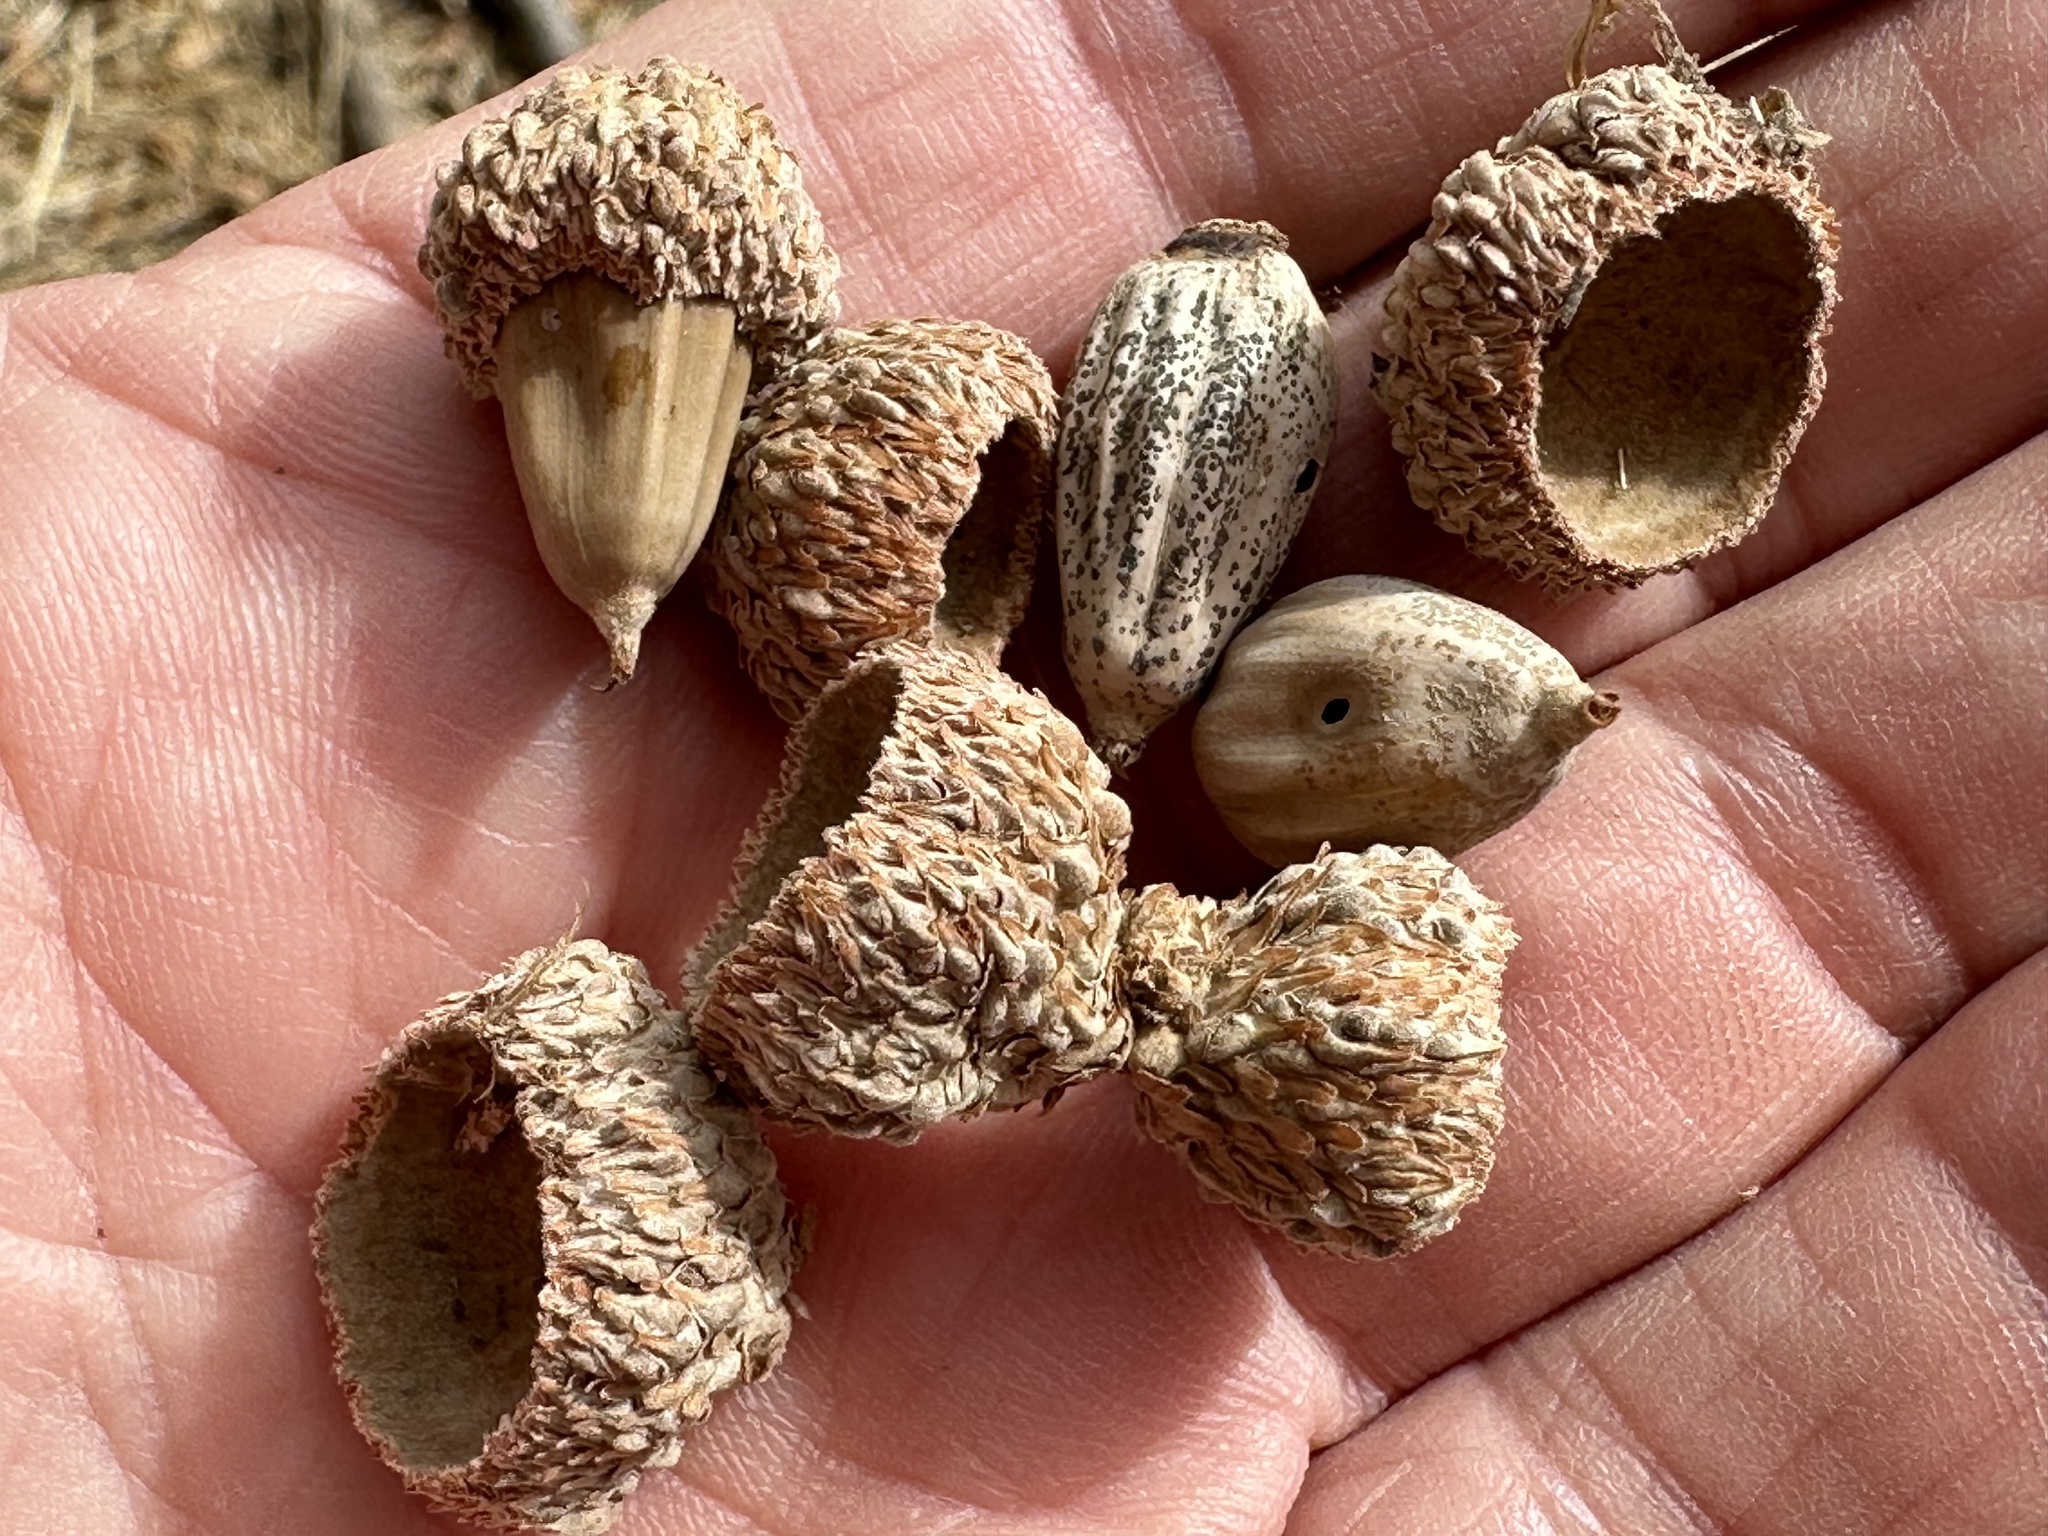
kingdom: Plantae
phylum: Tracheophyta
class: Magnoliopsida
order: Fagales
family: Fagaceae
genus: Quercus
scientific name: Quercus douglasii
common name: Blue oak
